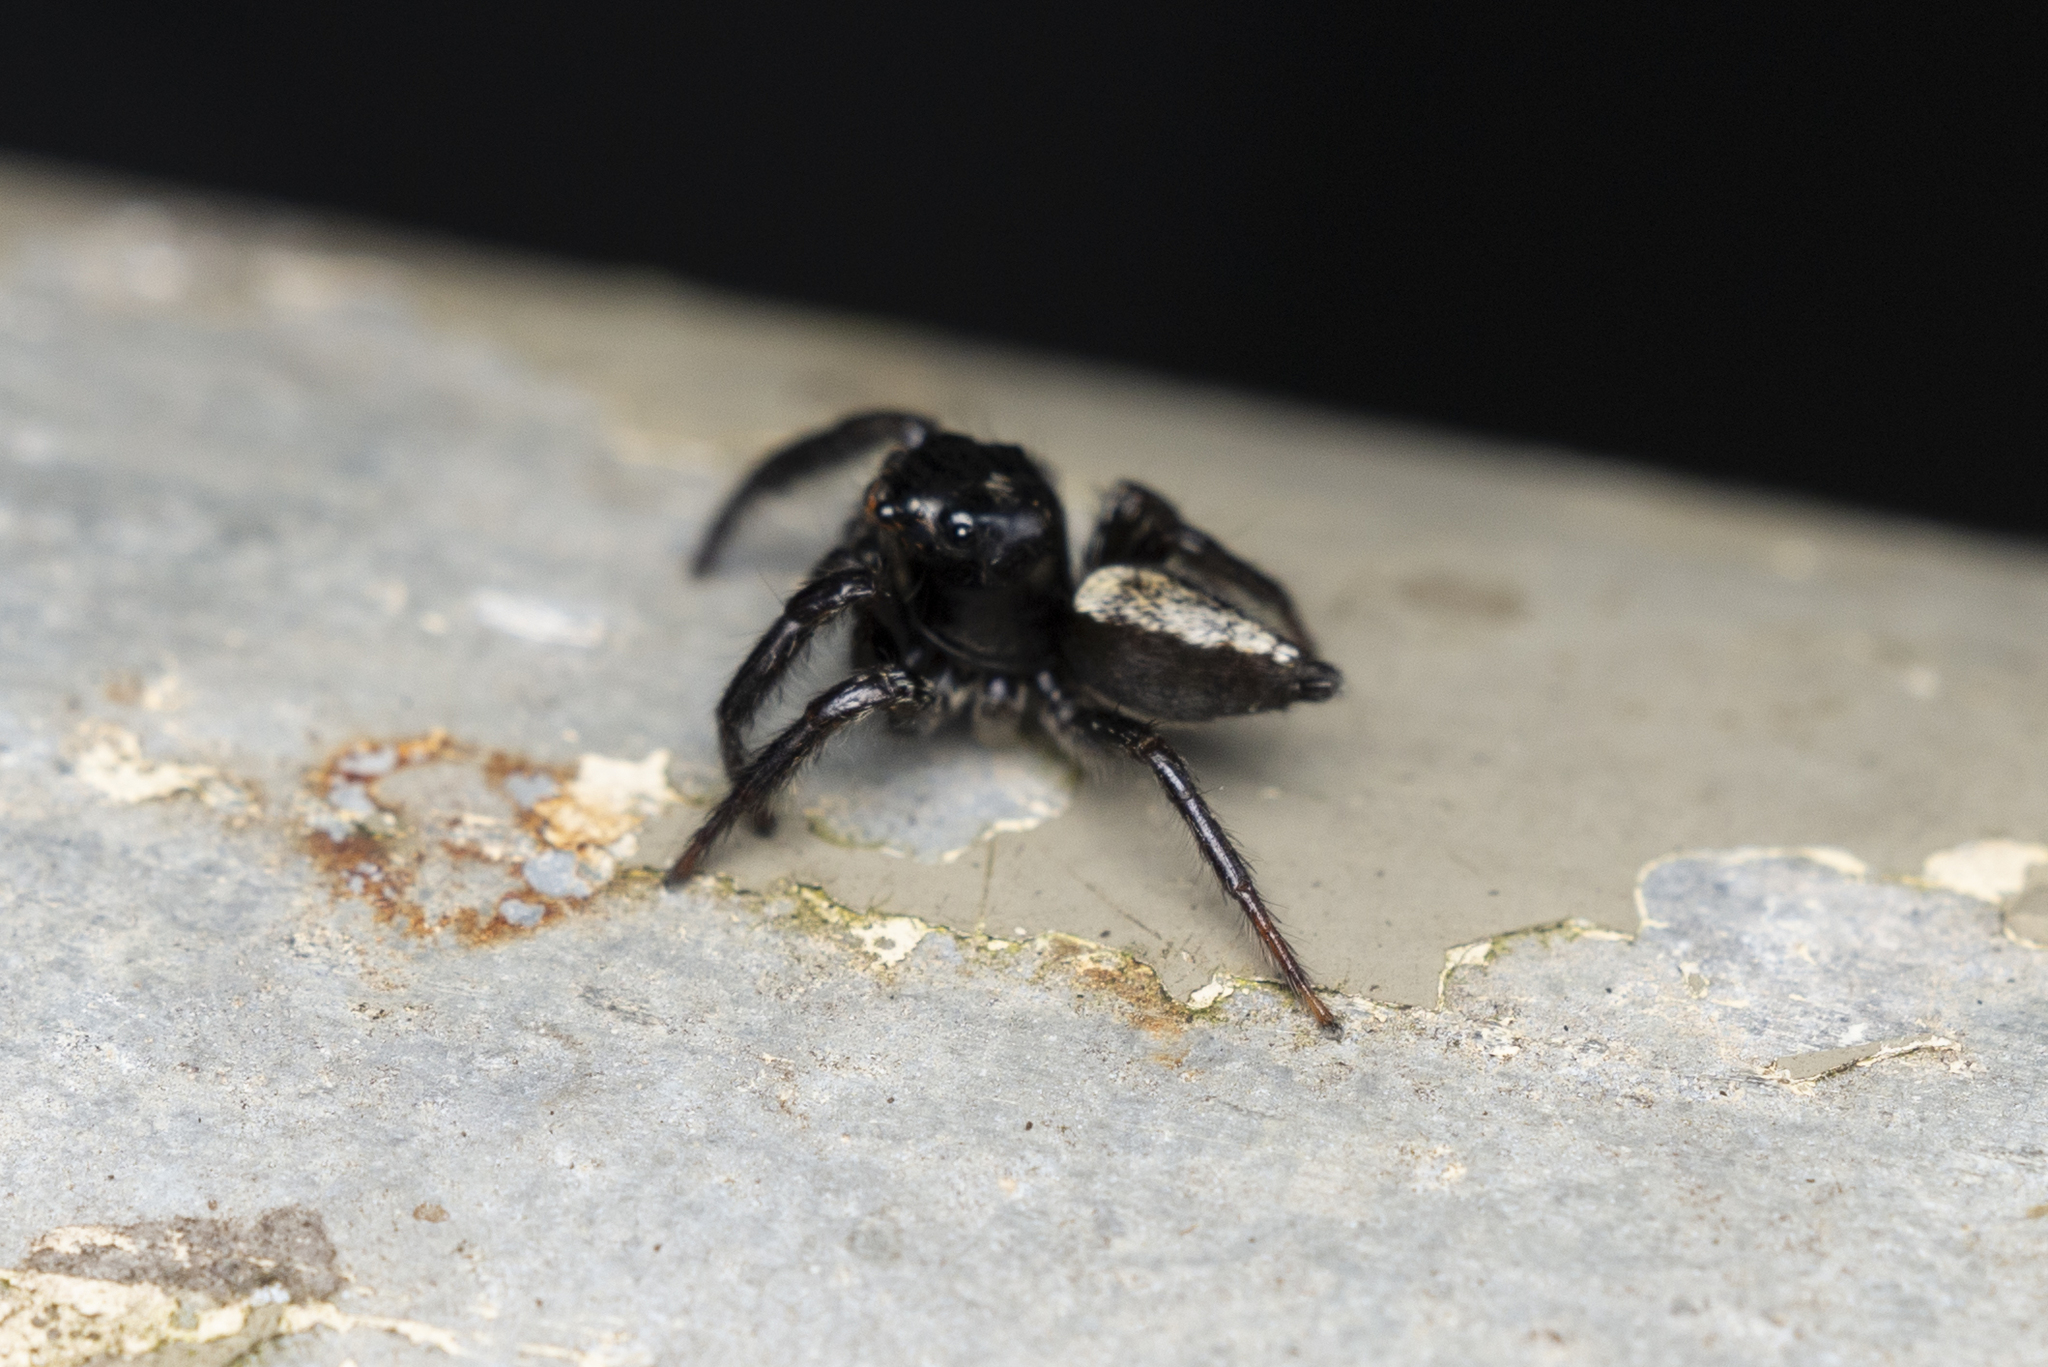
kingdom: Animalia
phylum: Arthropoda
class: Arachnida
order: Araneae
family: Salticidae
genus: Ptocasius
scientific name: Ptocasius strupifer
